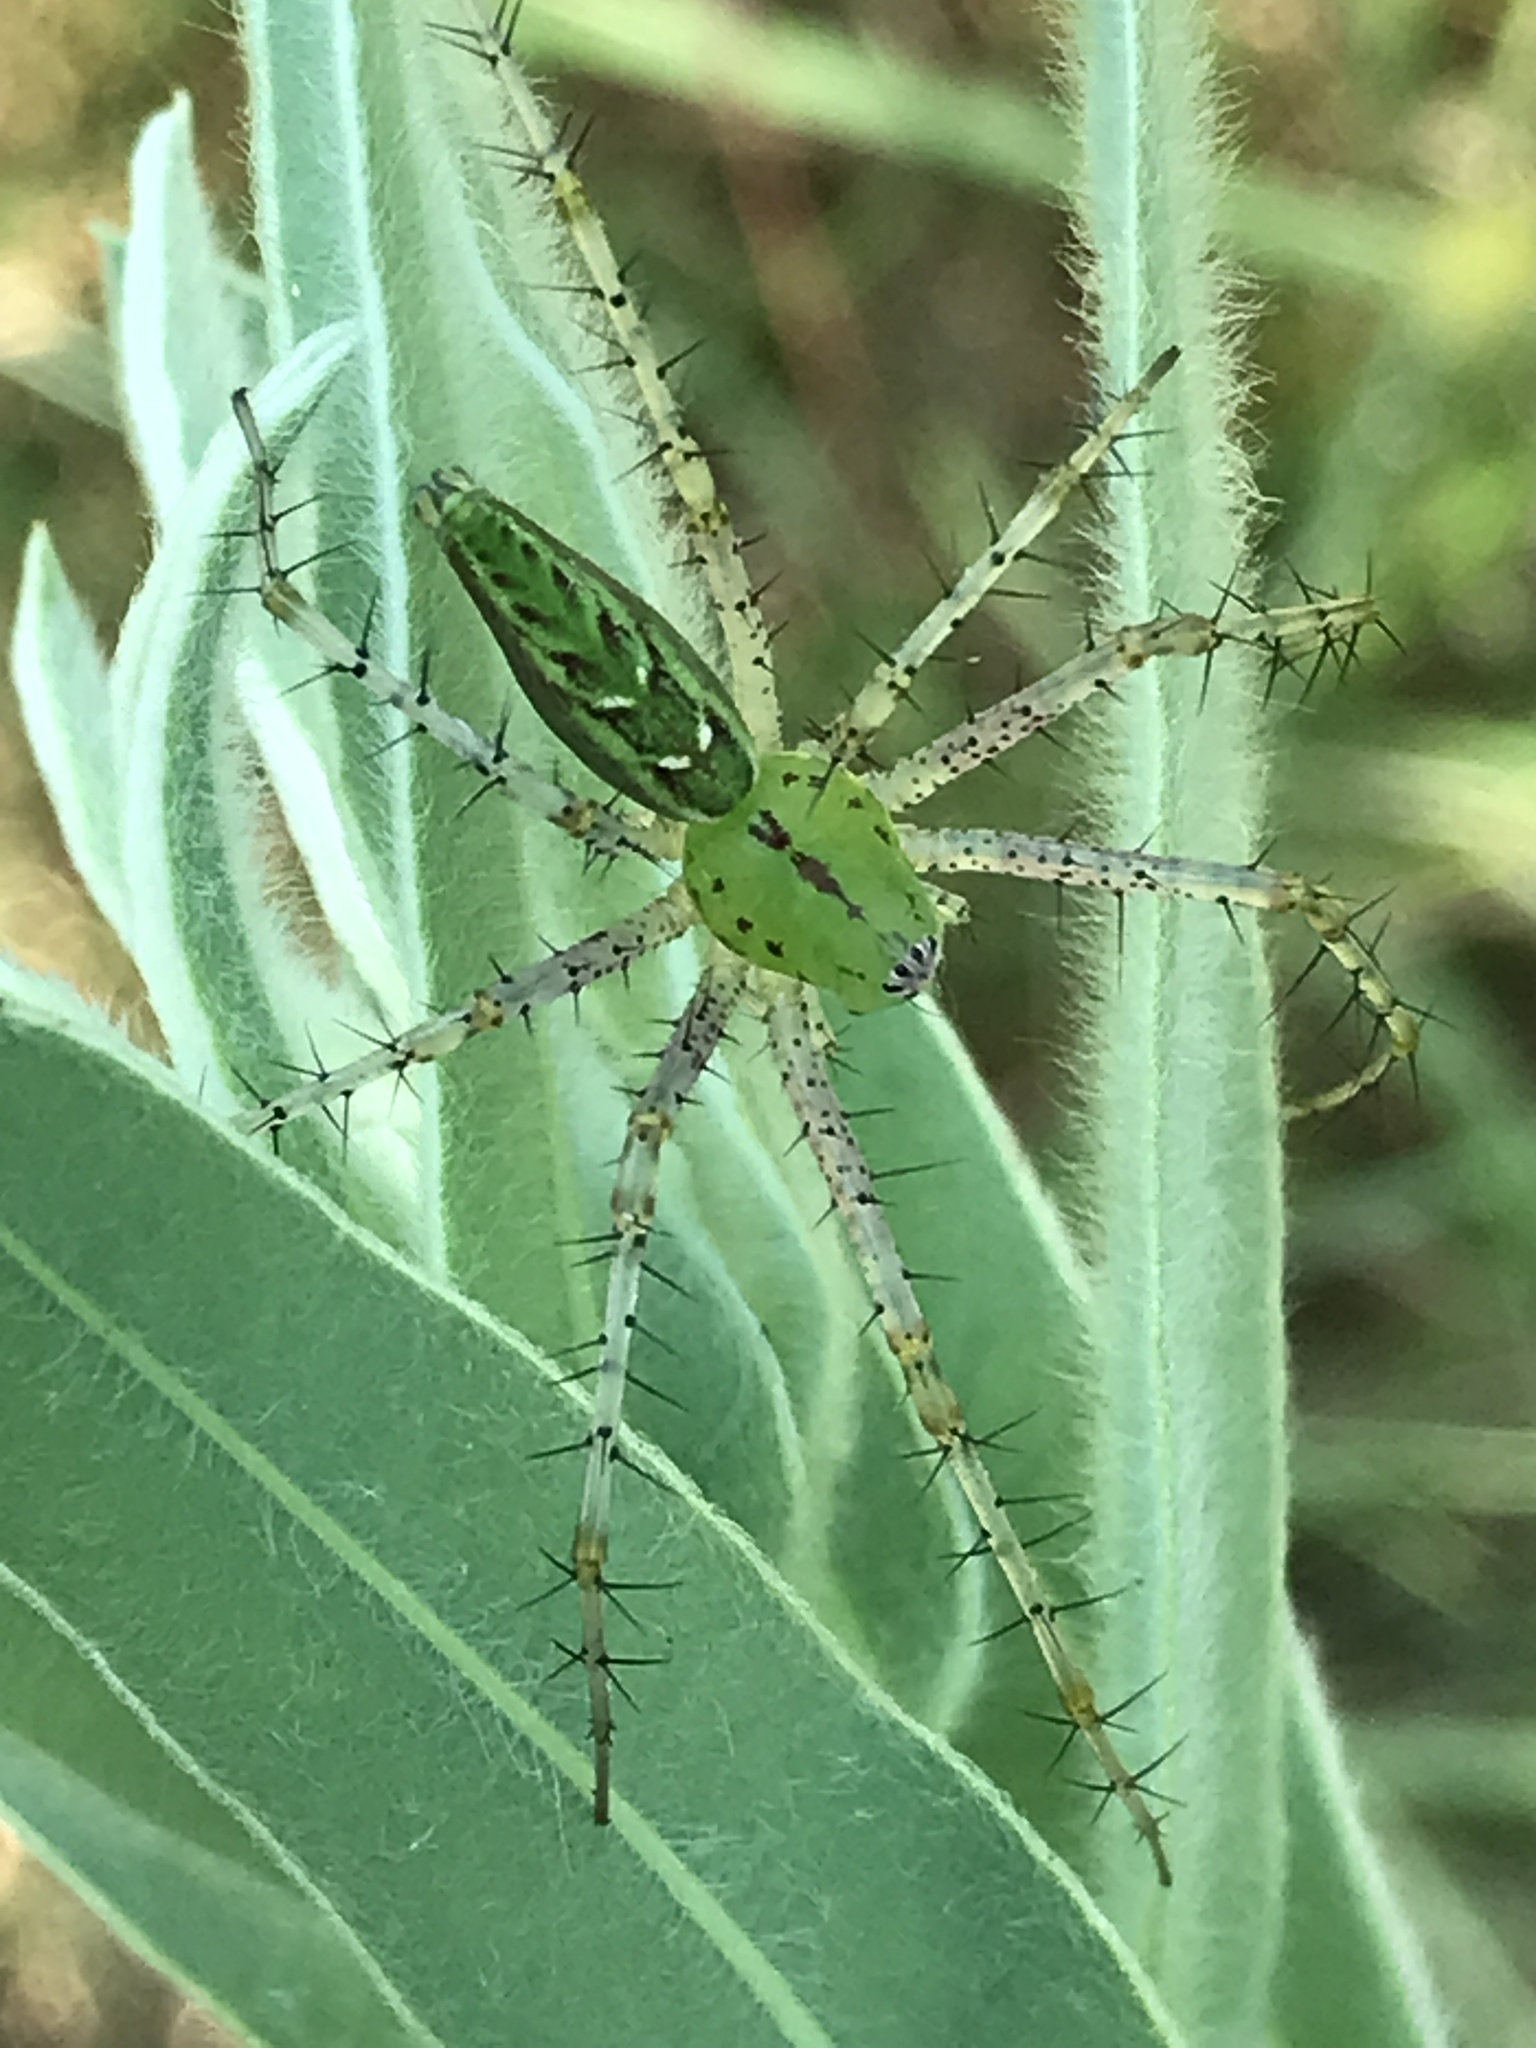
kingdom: Animalia
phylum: Arthropoda
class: Arachnida
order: Araneae
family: Oxyopidae
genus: Peucetia
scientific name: Peucetia viridans
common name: Lynx spiders
